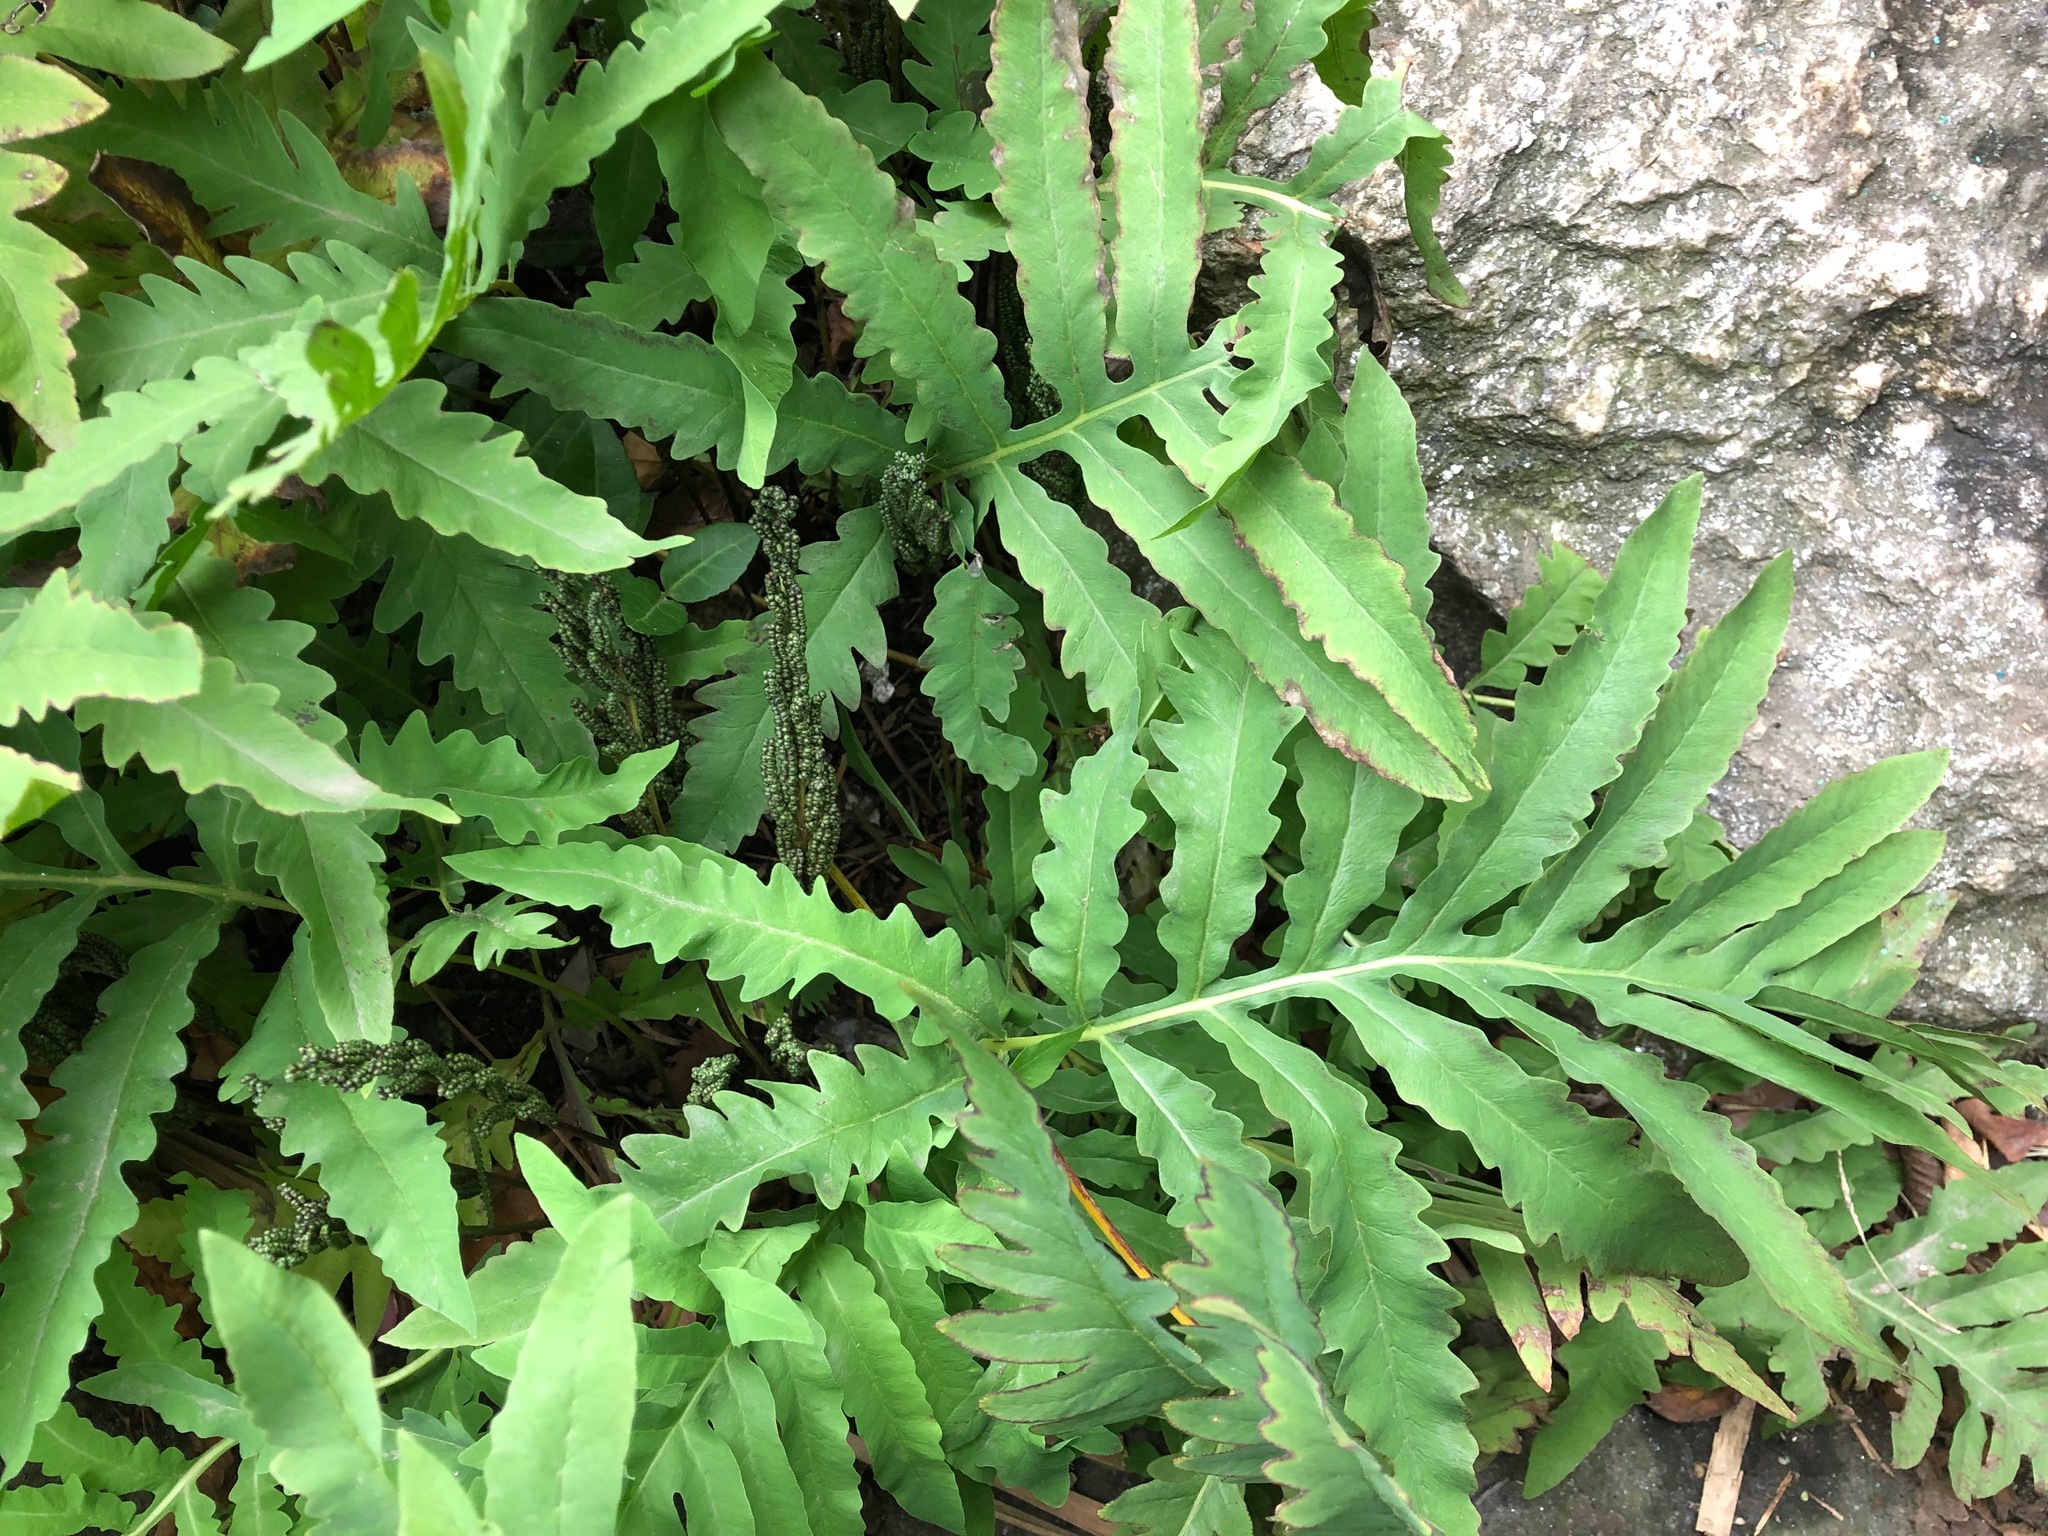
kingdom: Plantae
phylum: Tracheophyta
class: Polypodiopsida
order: Polypodiales
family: Onocleaceae
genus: Onoclea
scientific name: Onoclea sensibilis
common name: Sensitive fern
